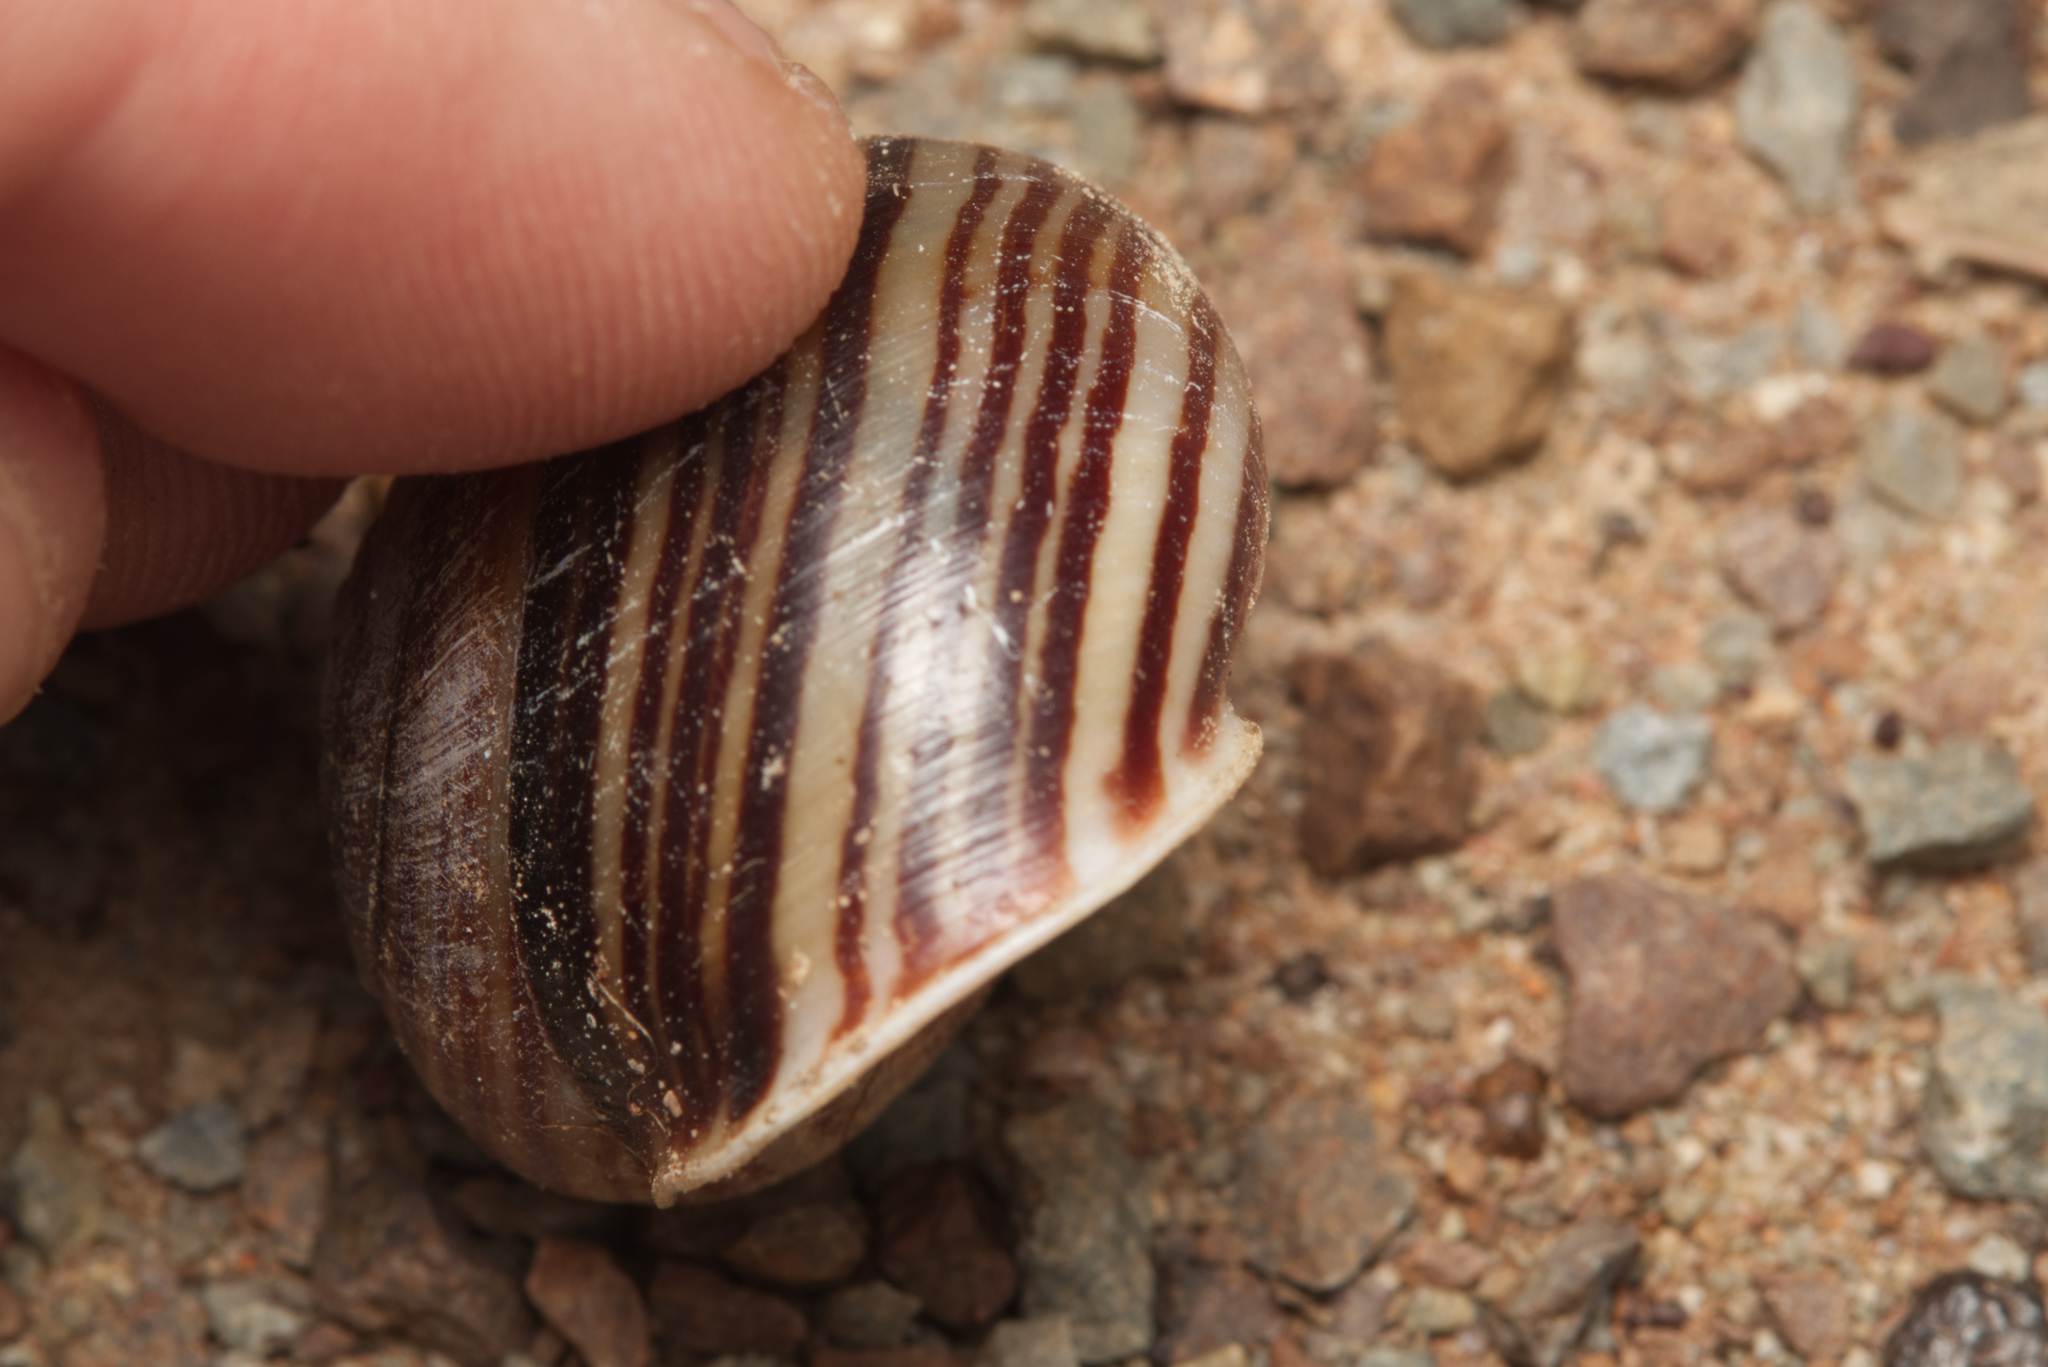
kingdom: Animalia
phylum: Mollusca
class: Gastropoda
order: Stylommatophora
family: Camaenidae
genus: Euryladra
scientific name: Euryladra mattea
